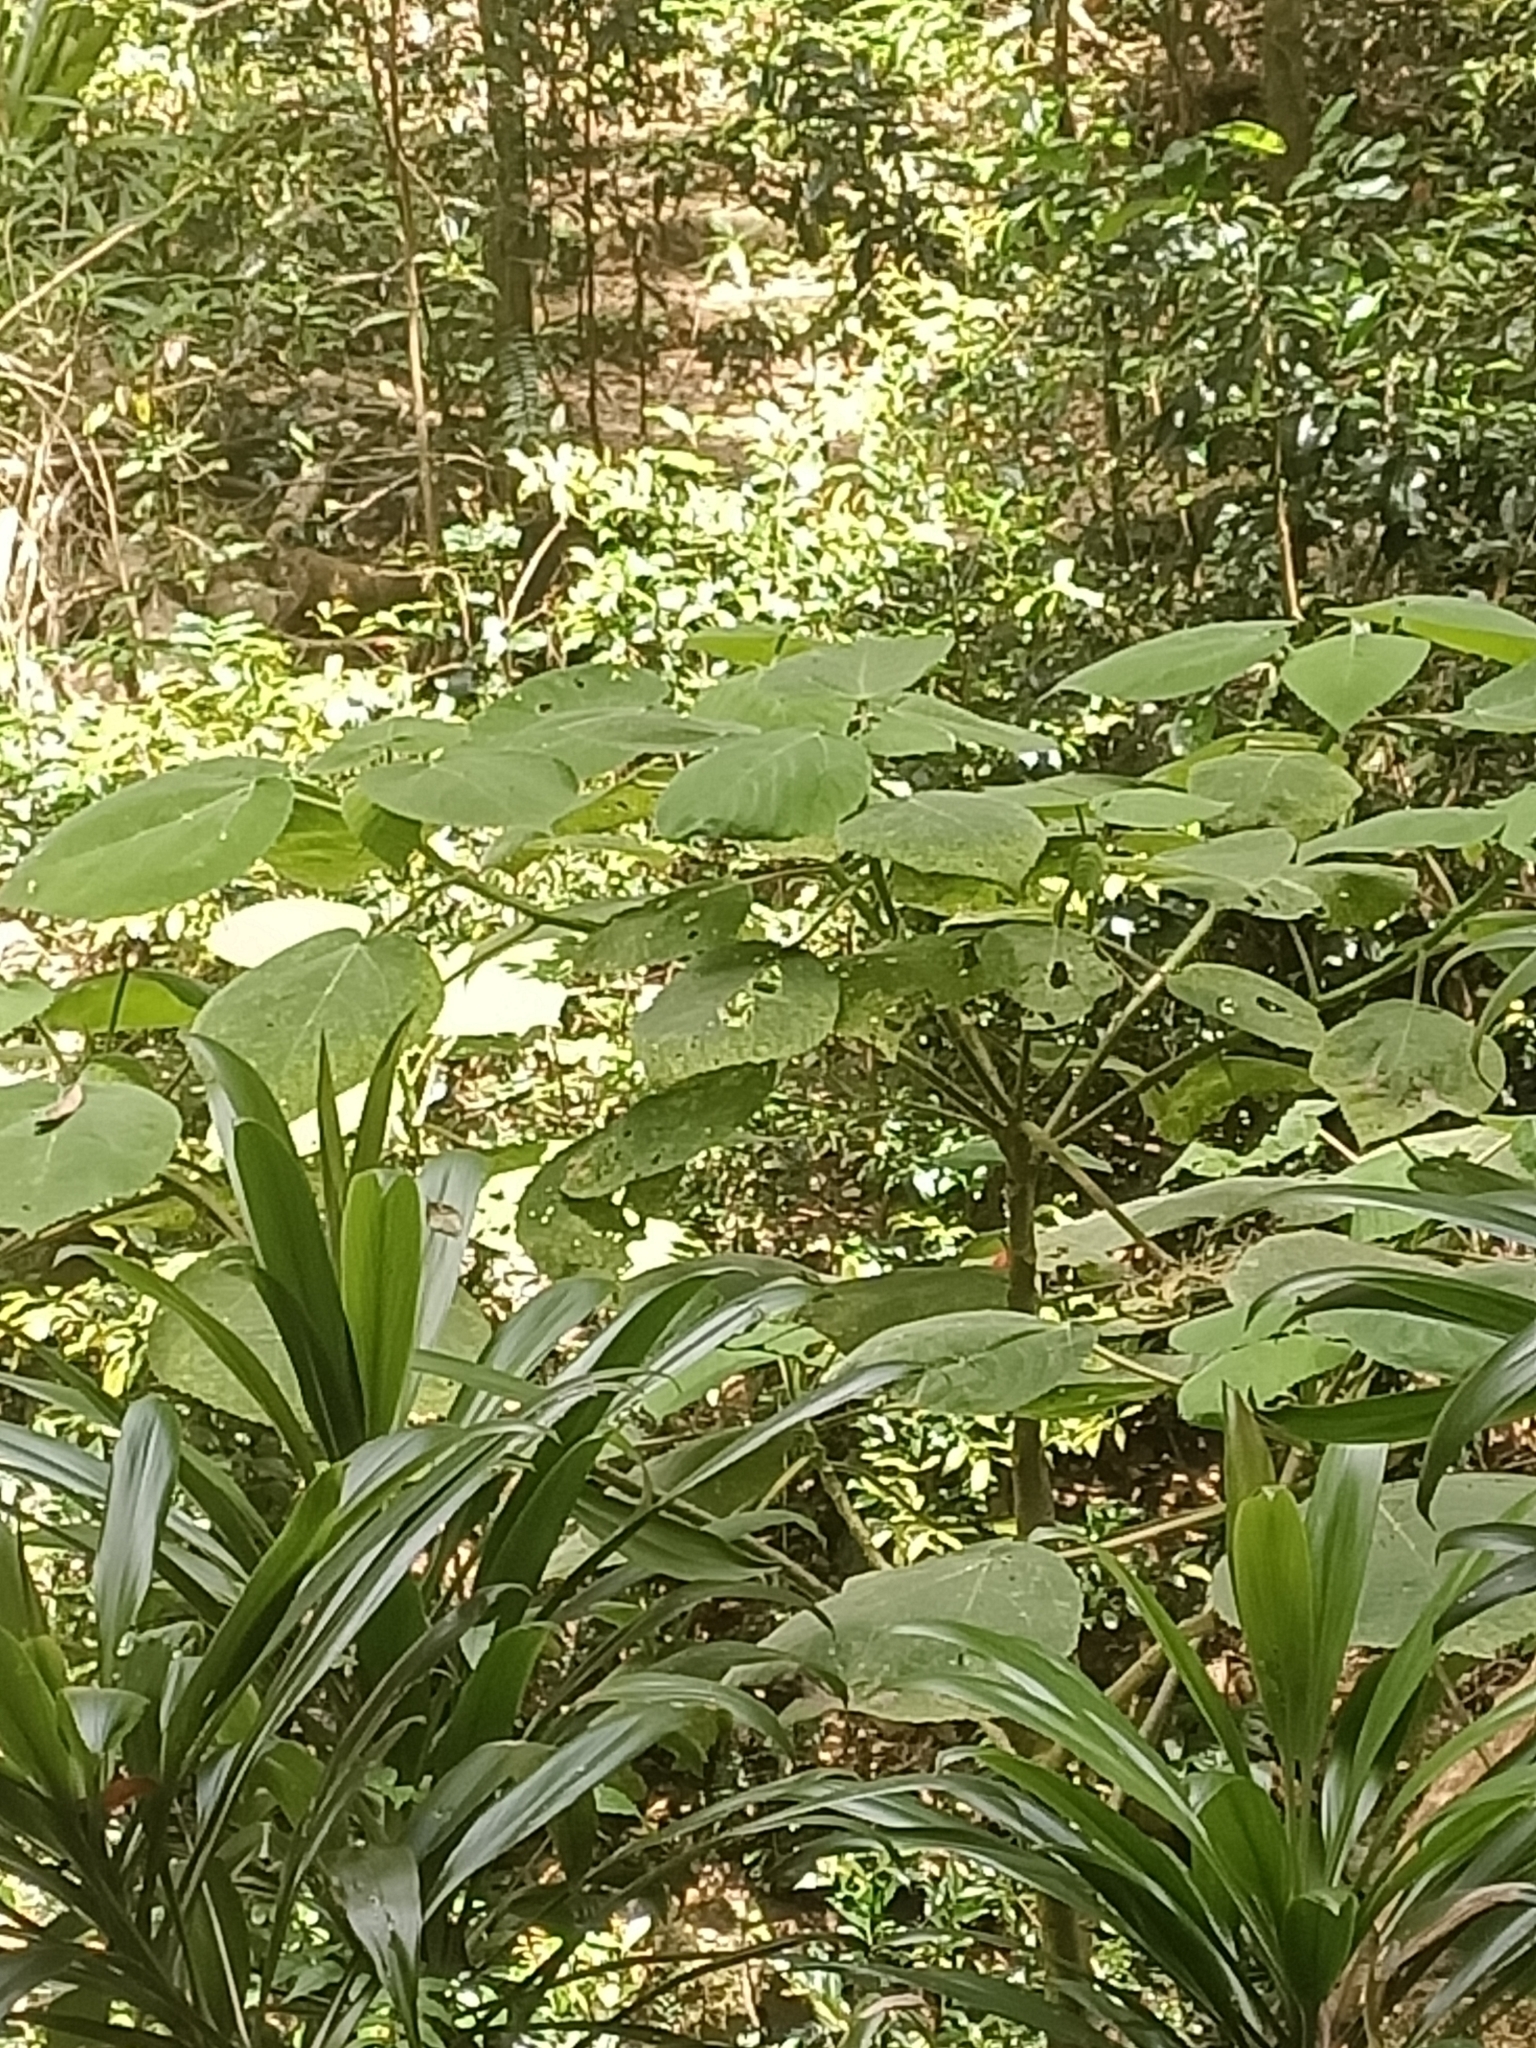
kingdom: Plantae
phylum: Tracheophyta
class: Magnoliopsida
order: Rosales
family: Urticaceae
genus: Dendrocnide
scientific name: Dendrocnide excelsa
